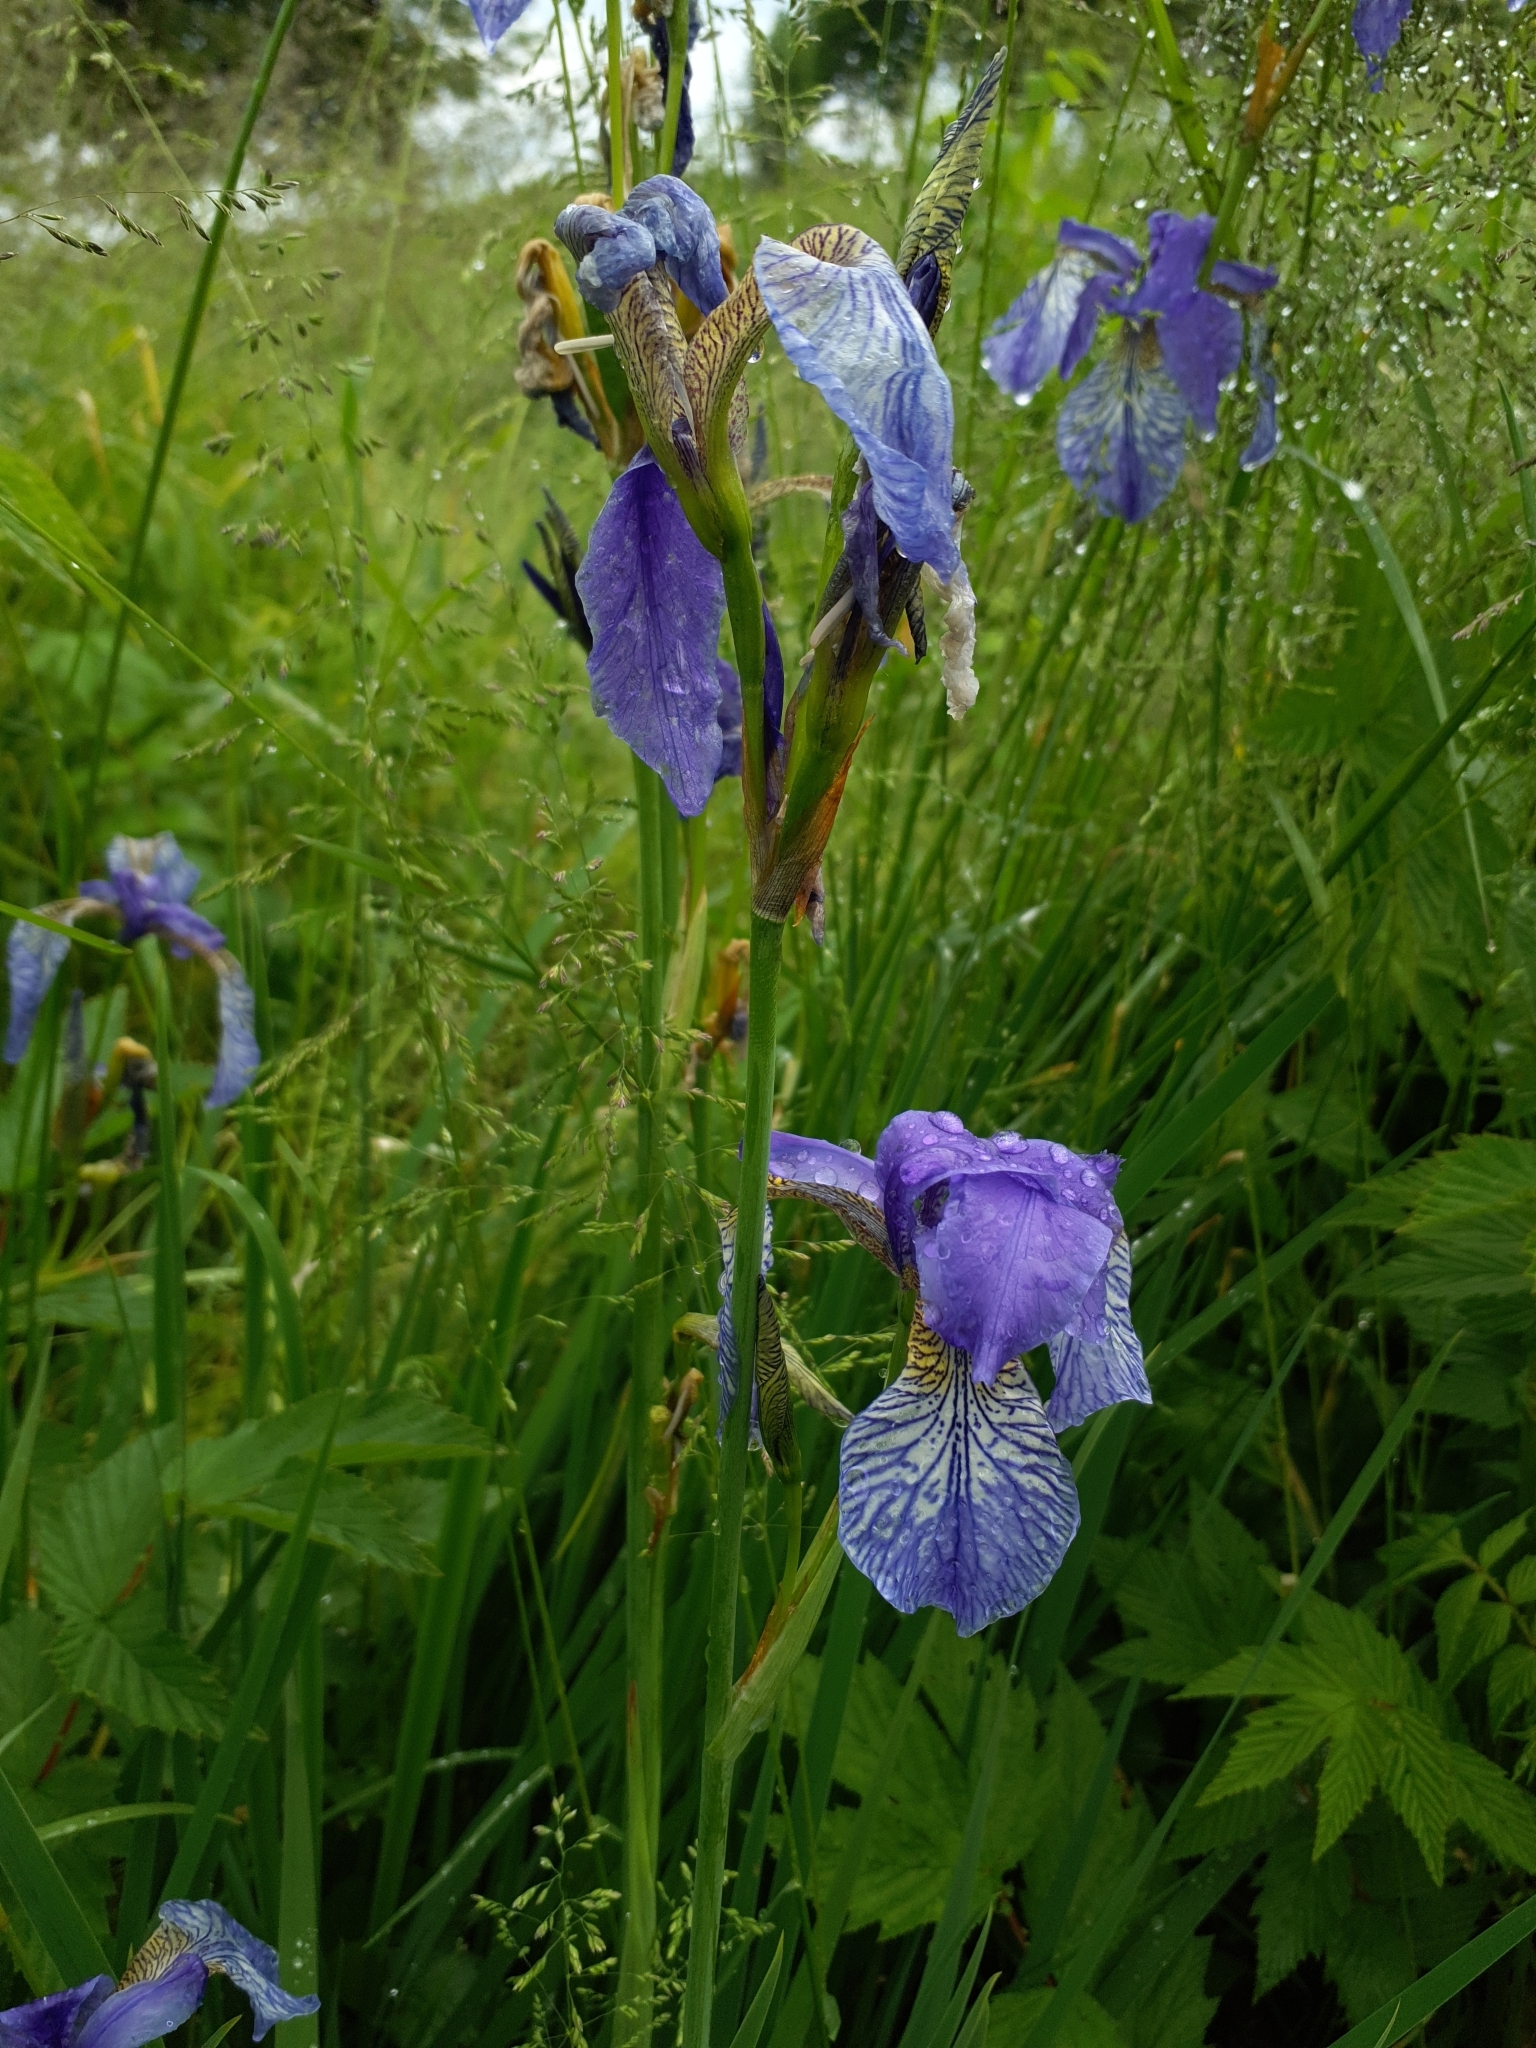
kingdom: Plantae
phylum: Tracheophyta
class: Liliopsida
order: Asparagales
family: Iridaceae
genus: Iris
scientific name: Iris sibirica
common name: Siberian iris
